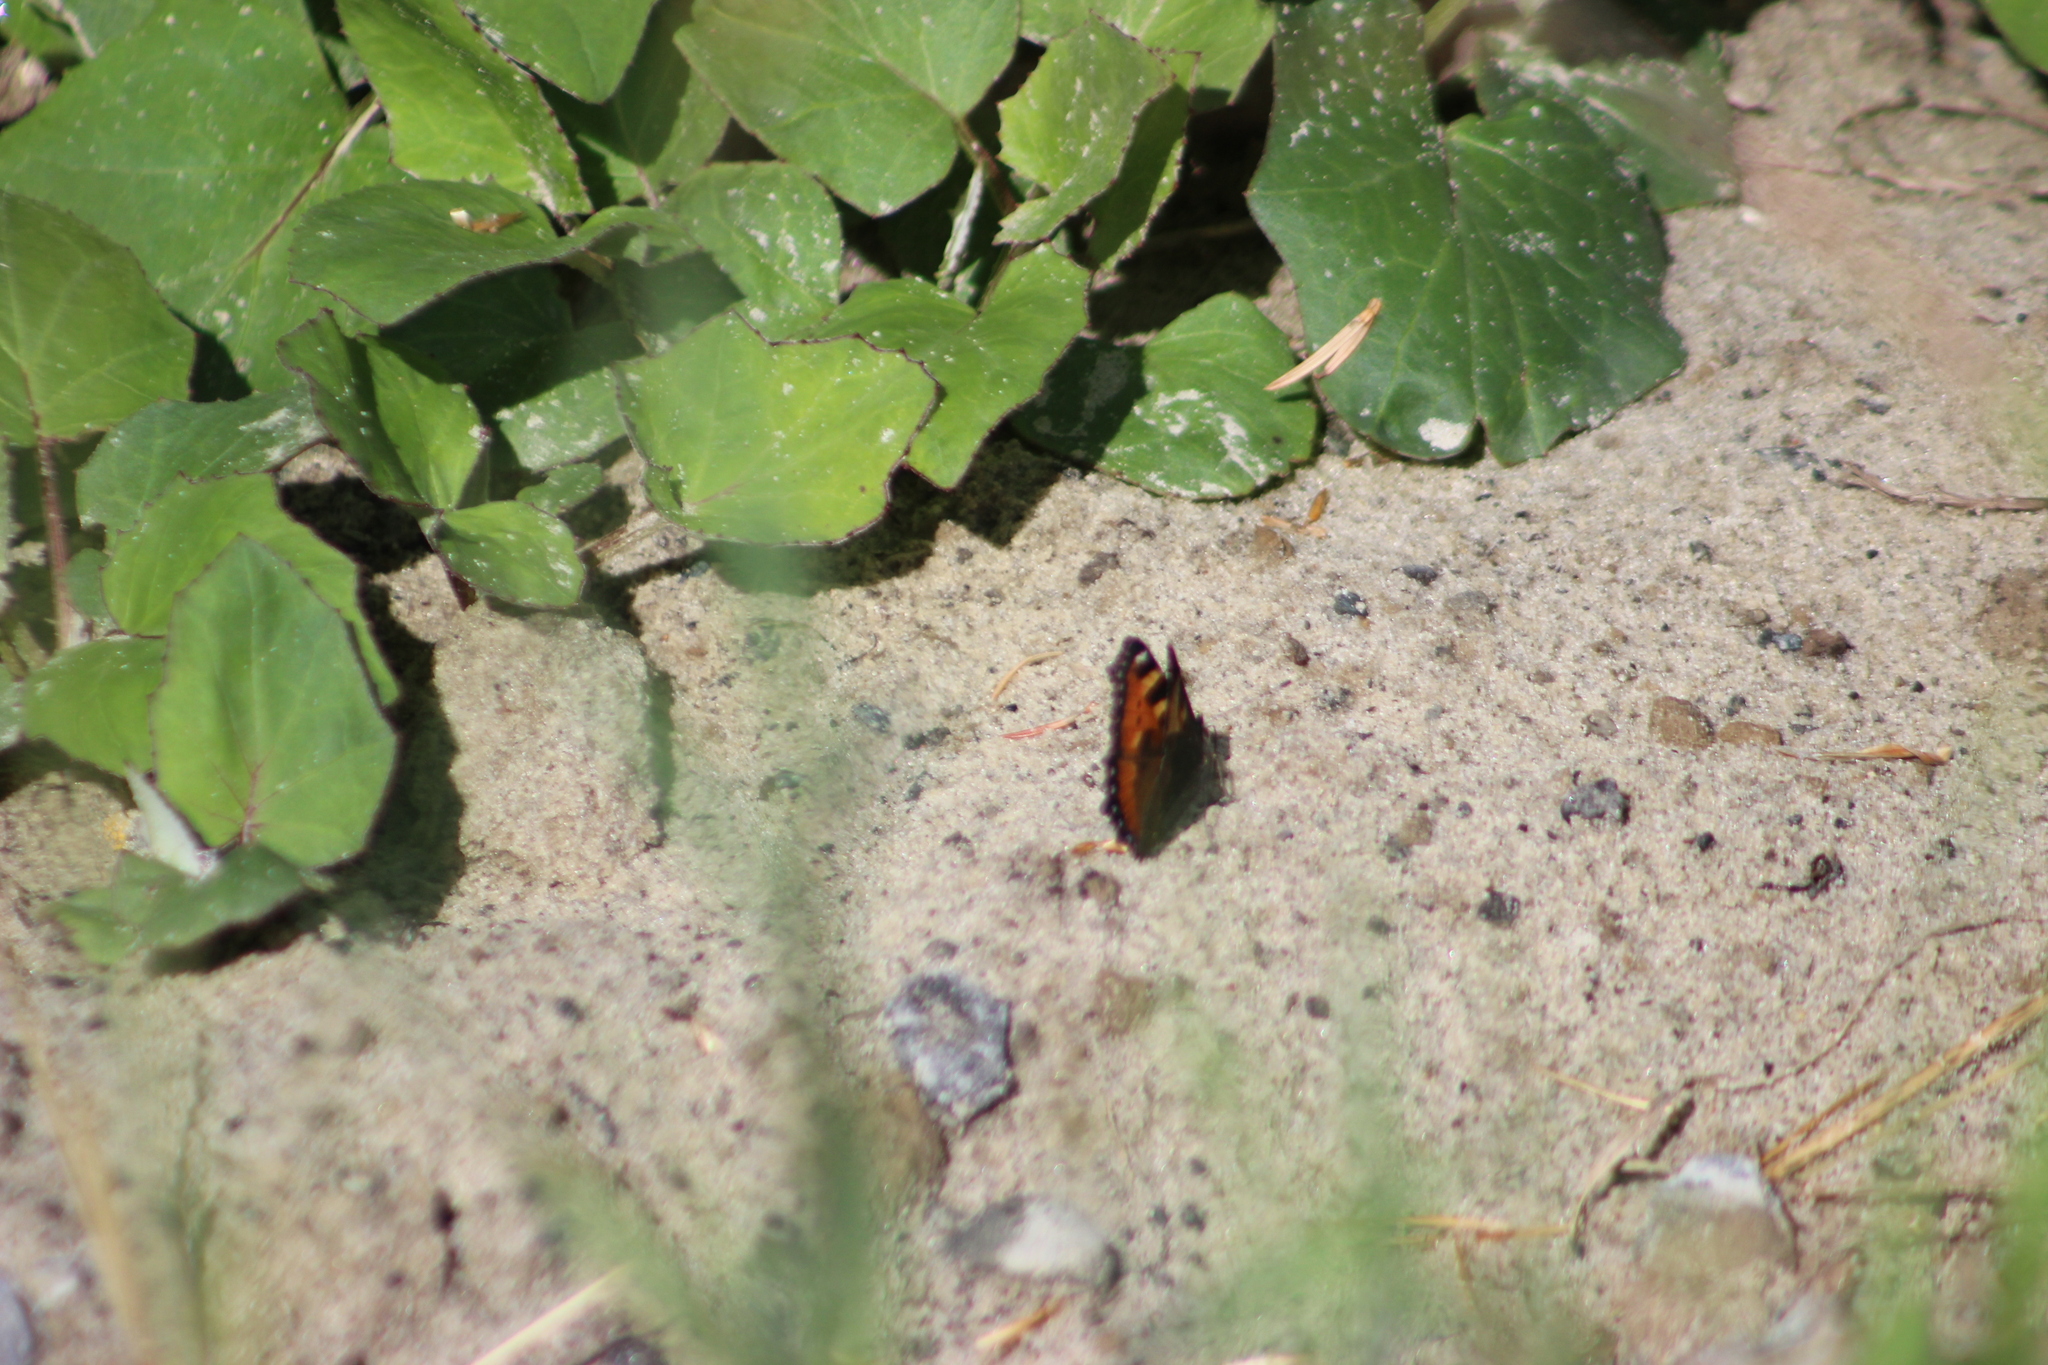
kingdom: Animalia
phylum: Arthropoda
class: Insecta
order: Lepidoptera
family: Nymphalidae
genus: Aglais
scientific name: Aglais urticae
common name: Small tortoiseshell
